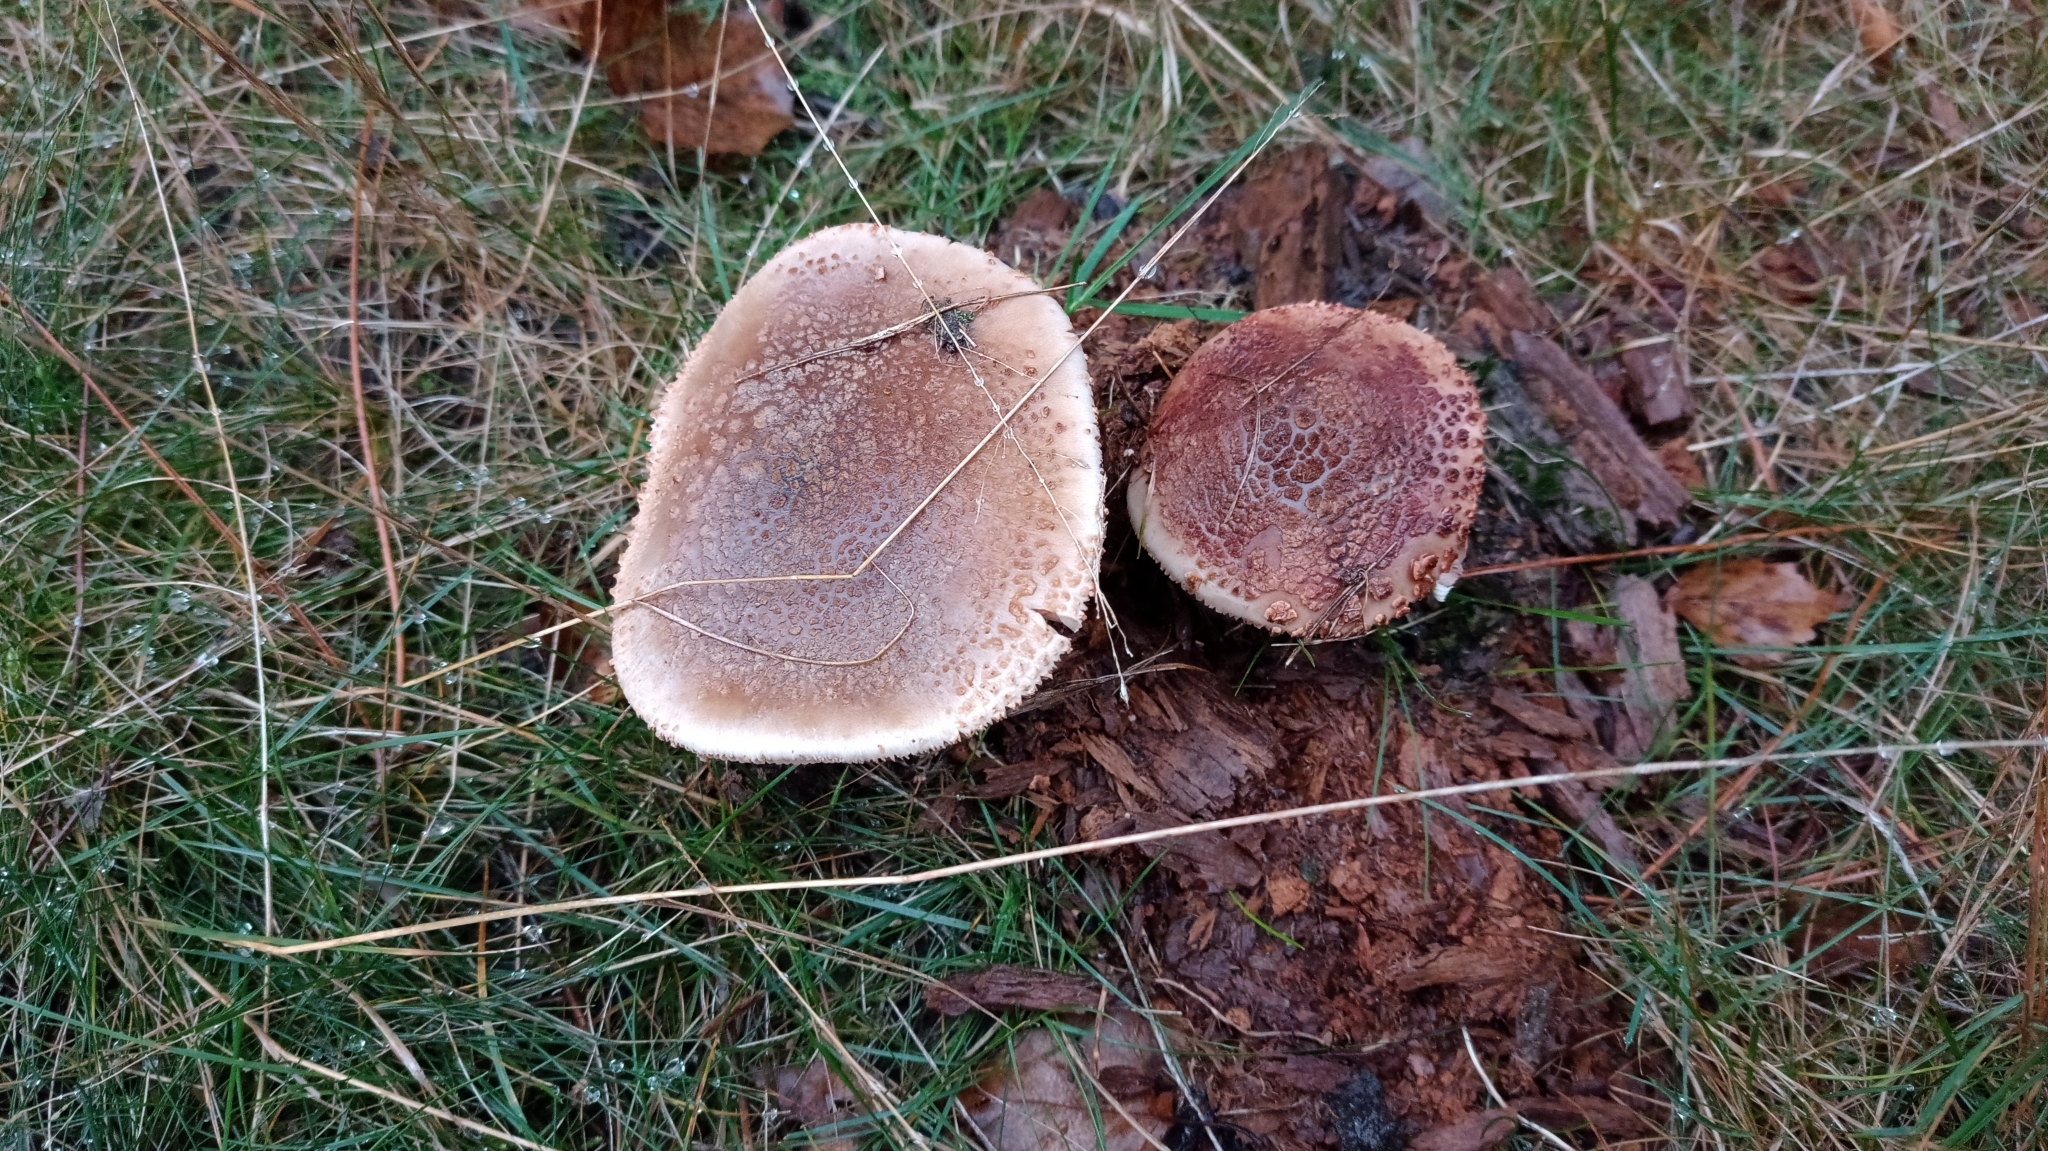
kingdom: Fungi
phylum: Basidiomycota
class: Agaricomycetes
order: Agaricales
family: Amanitaceae
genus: Amanita
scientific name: Amanita rubescens
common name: Blusher
